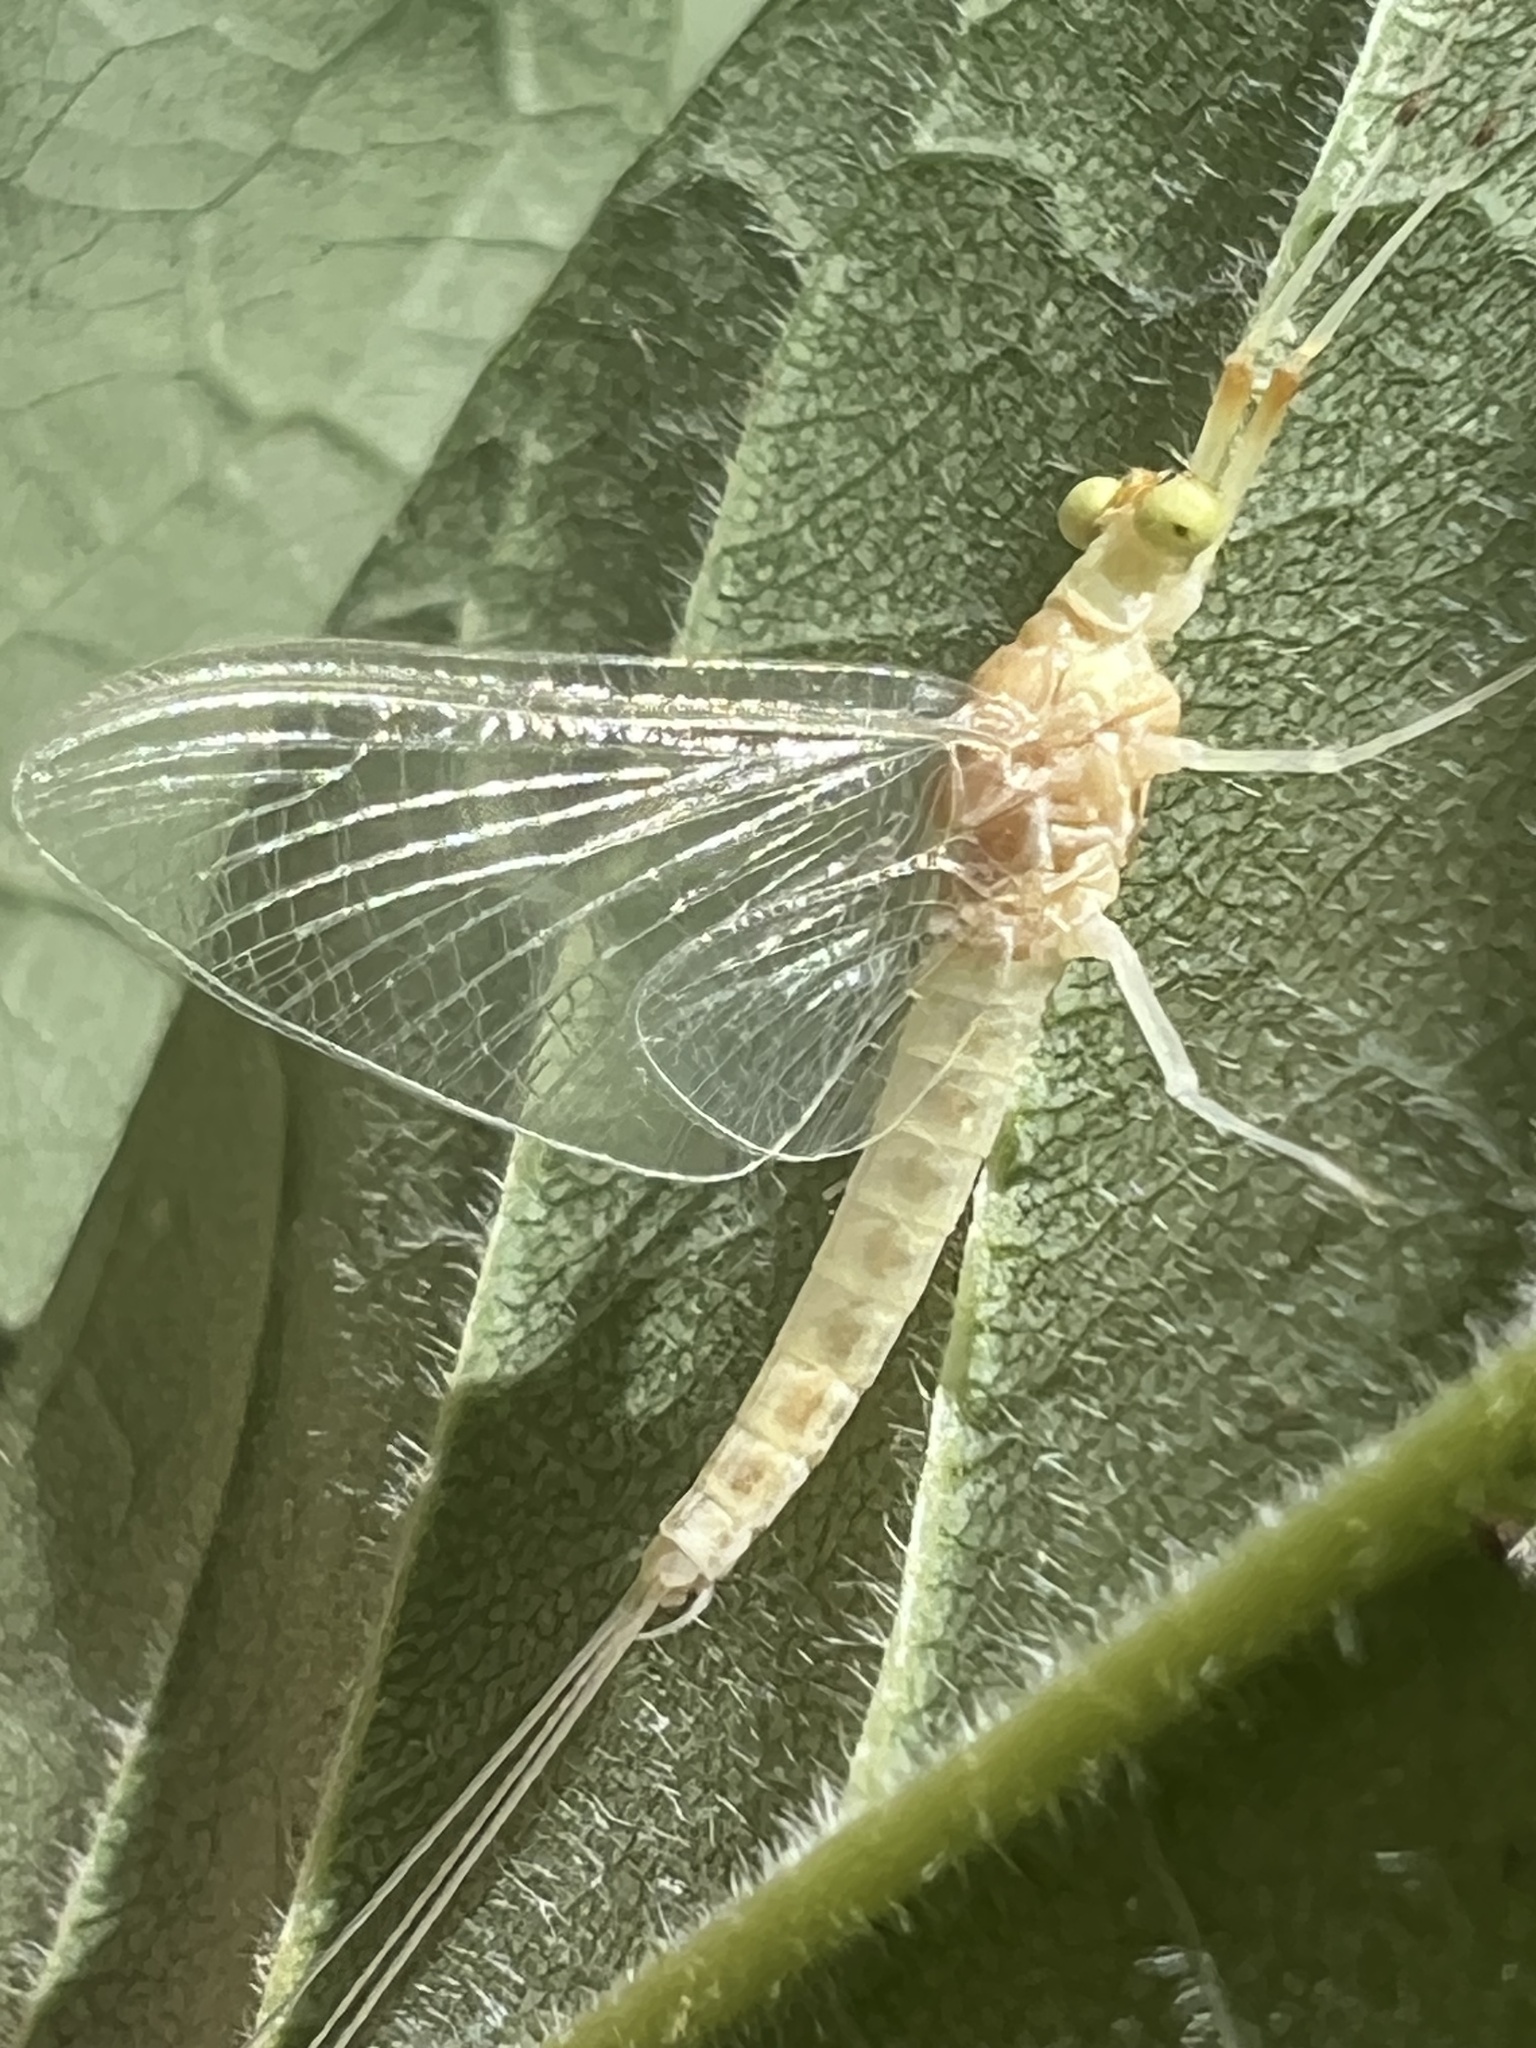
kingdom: Animalia
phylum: Arthropoda
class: Insecta
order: Ephemeroptera
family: Potamanthidae
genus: Anthopotamus
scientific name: Anthopotamus verticis
